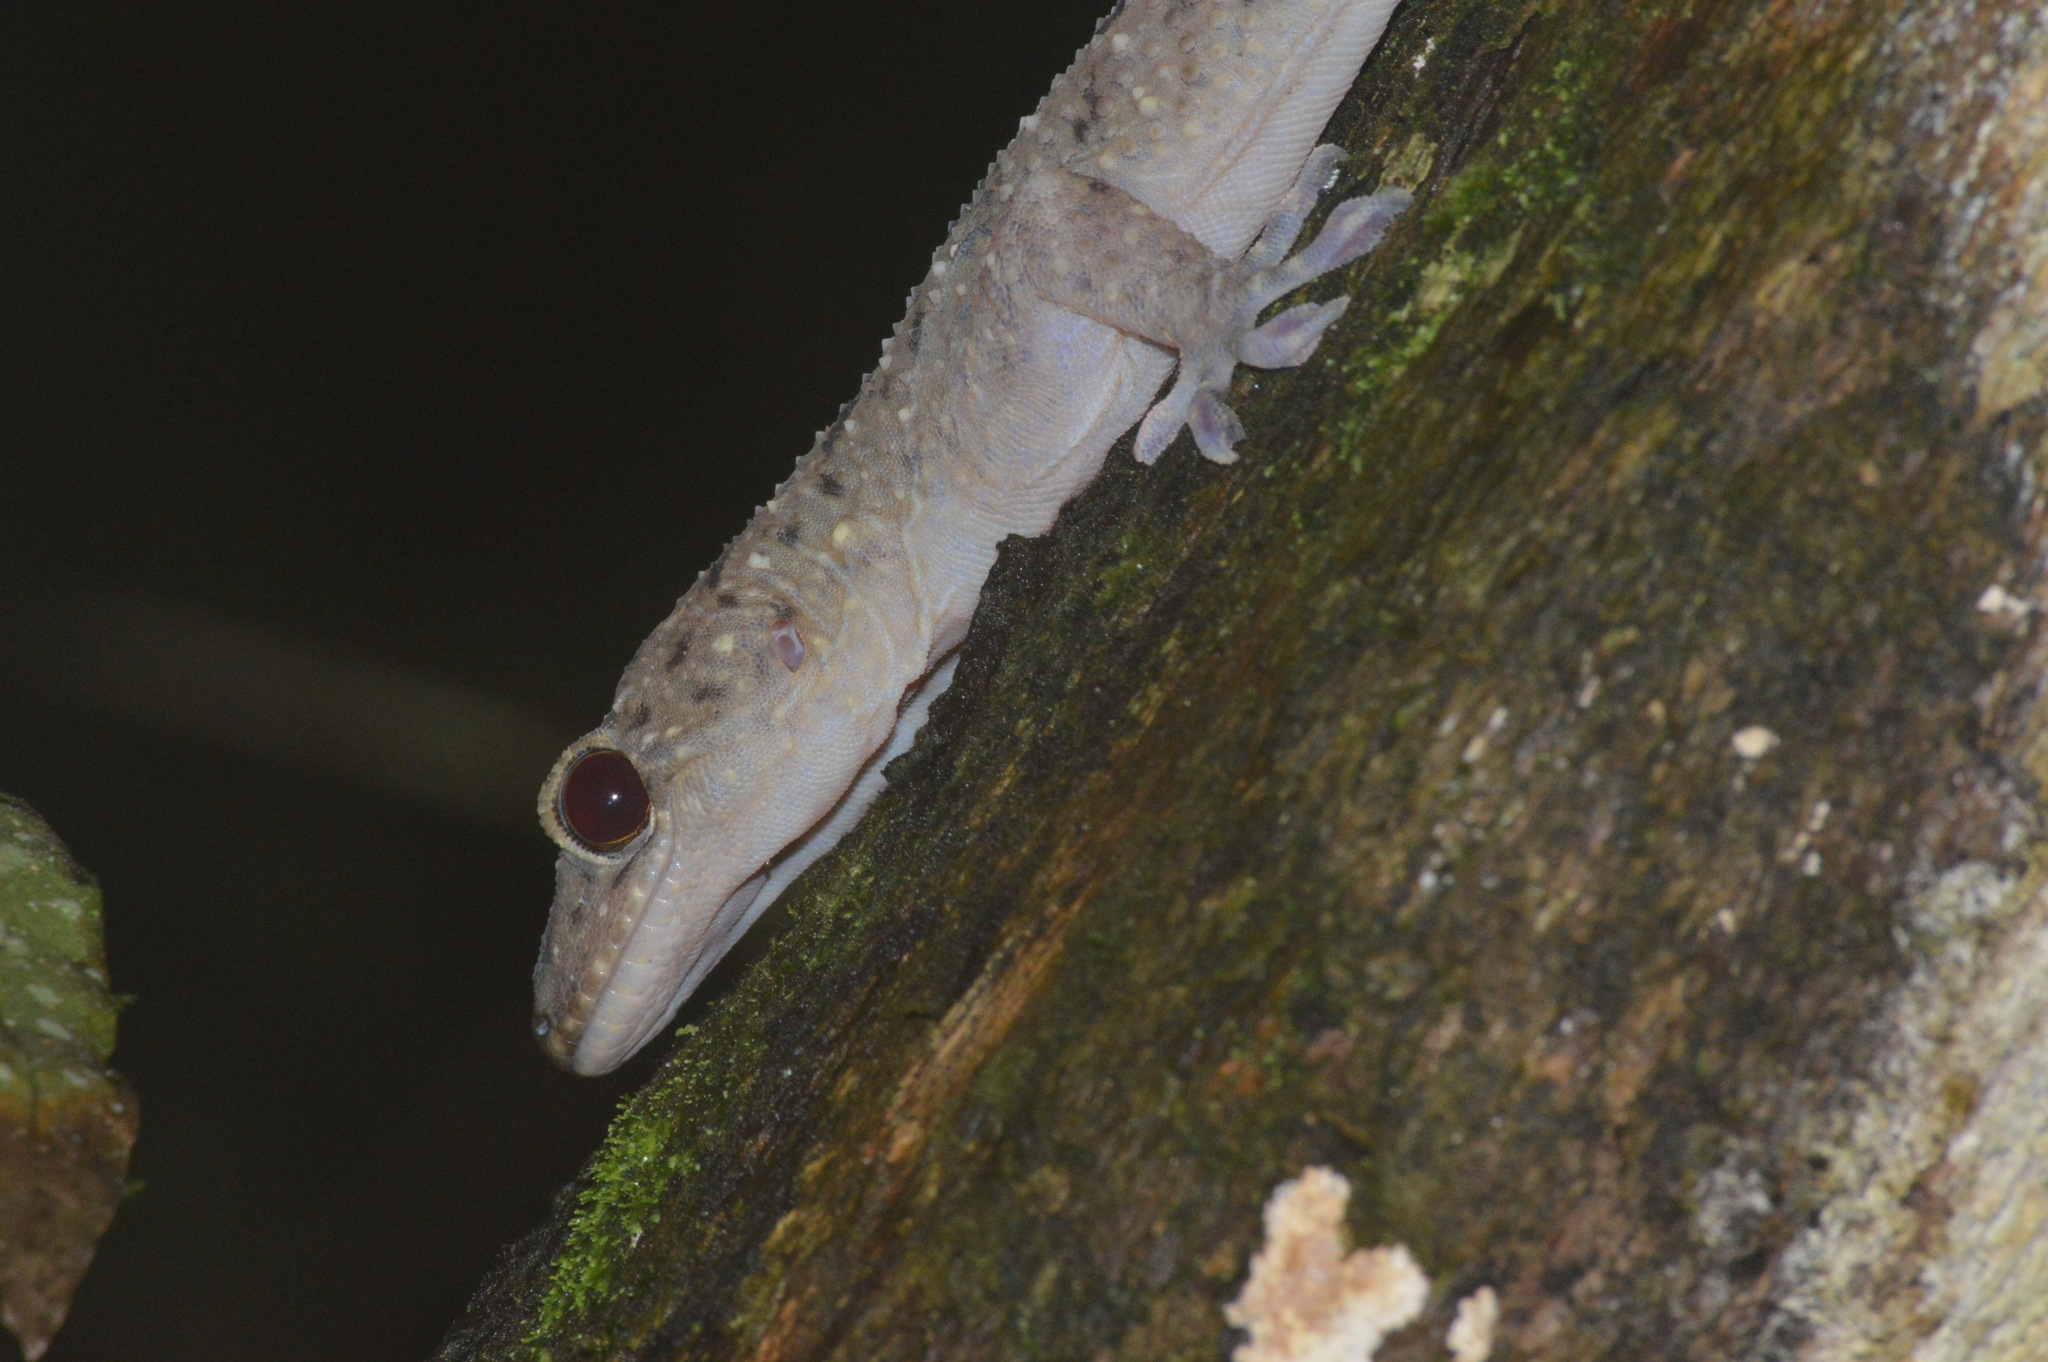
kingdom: Animalia
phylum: Chordata
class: Squamata
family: Gekkonidae
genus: Gekko
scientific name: Gekko monarchus
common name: Spotted house gecko
